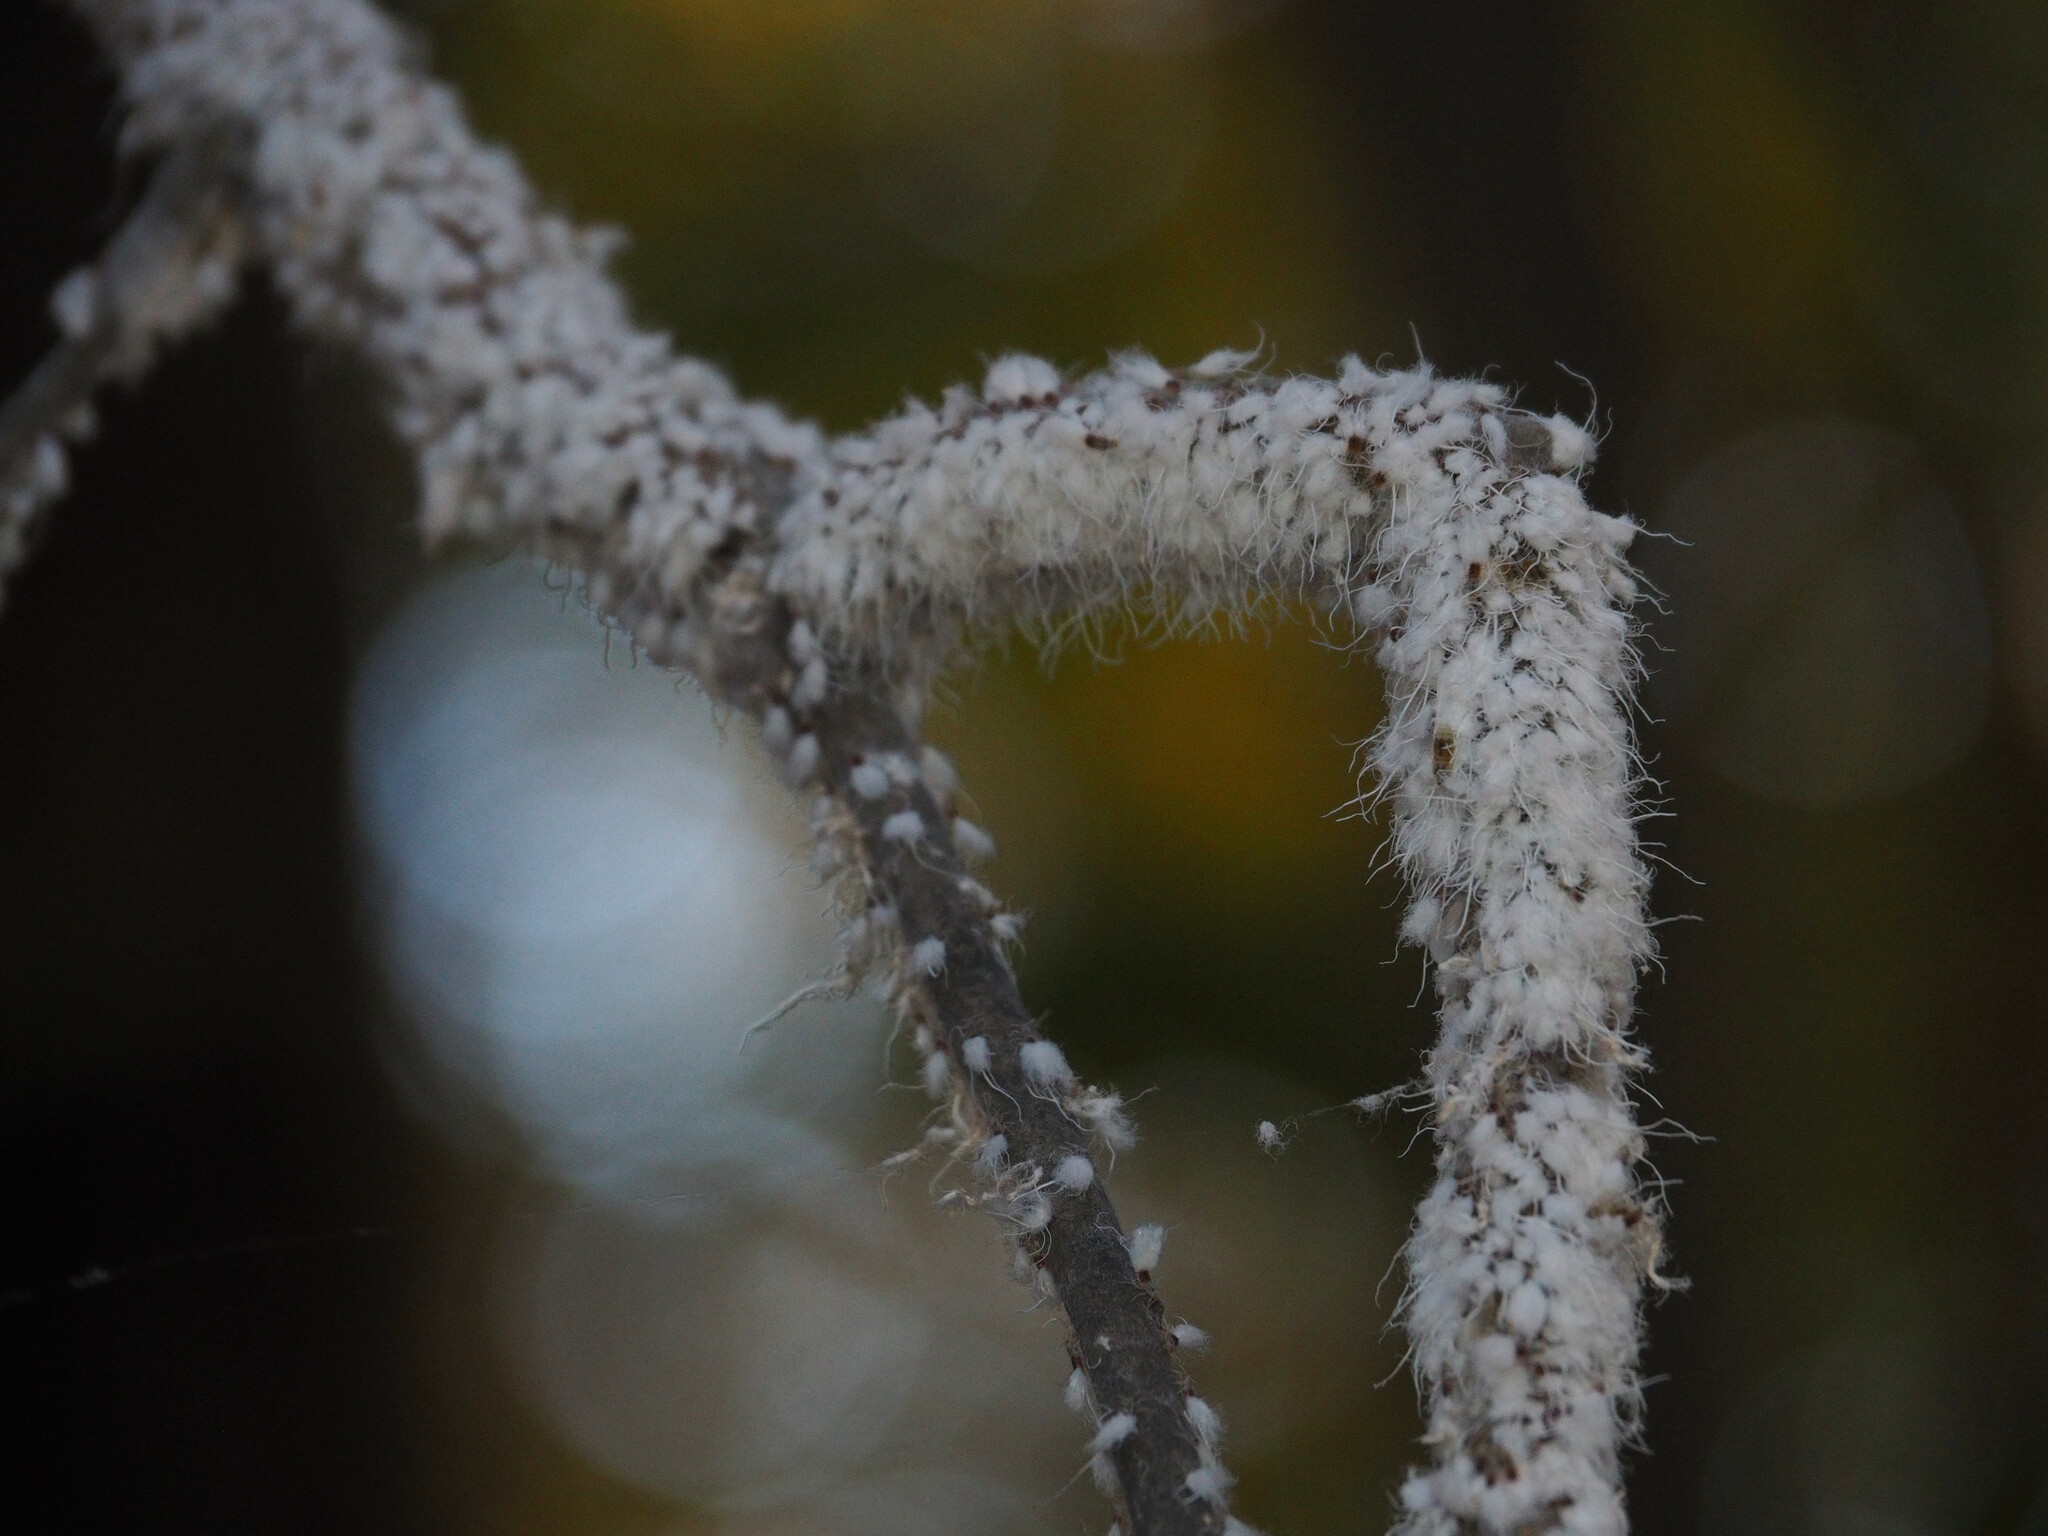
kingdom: Animalia
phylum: Arthropoda
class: Insecta
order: Hemiptera
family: Aphididae
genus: Grylloprociphilus
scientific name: Grylloprociphilus imbricator
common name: Beech blight aphid
